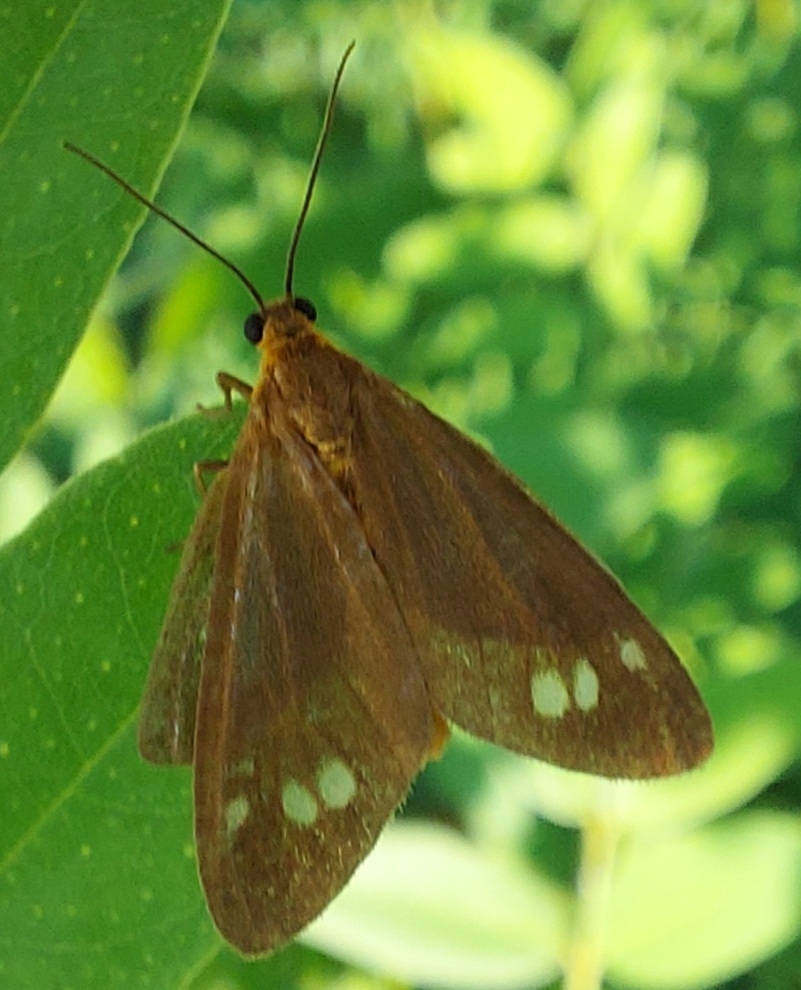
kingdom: Animalia
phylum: Arthropoda
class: Insecta
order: Lepidoptera
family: Erebidae
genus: Dysauxes
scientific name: Dysauxes ancilla
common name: The handmaid
